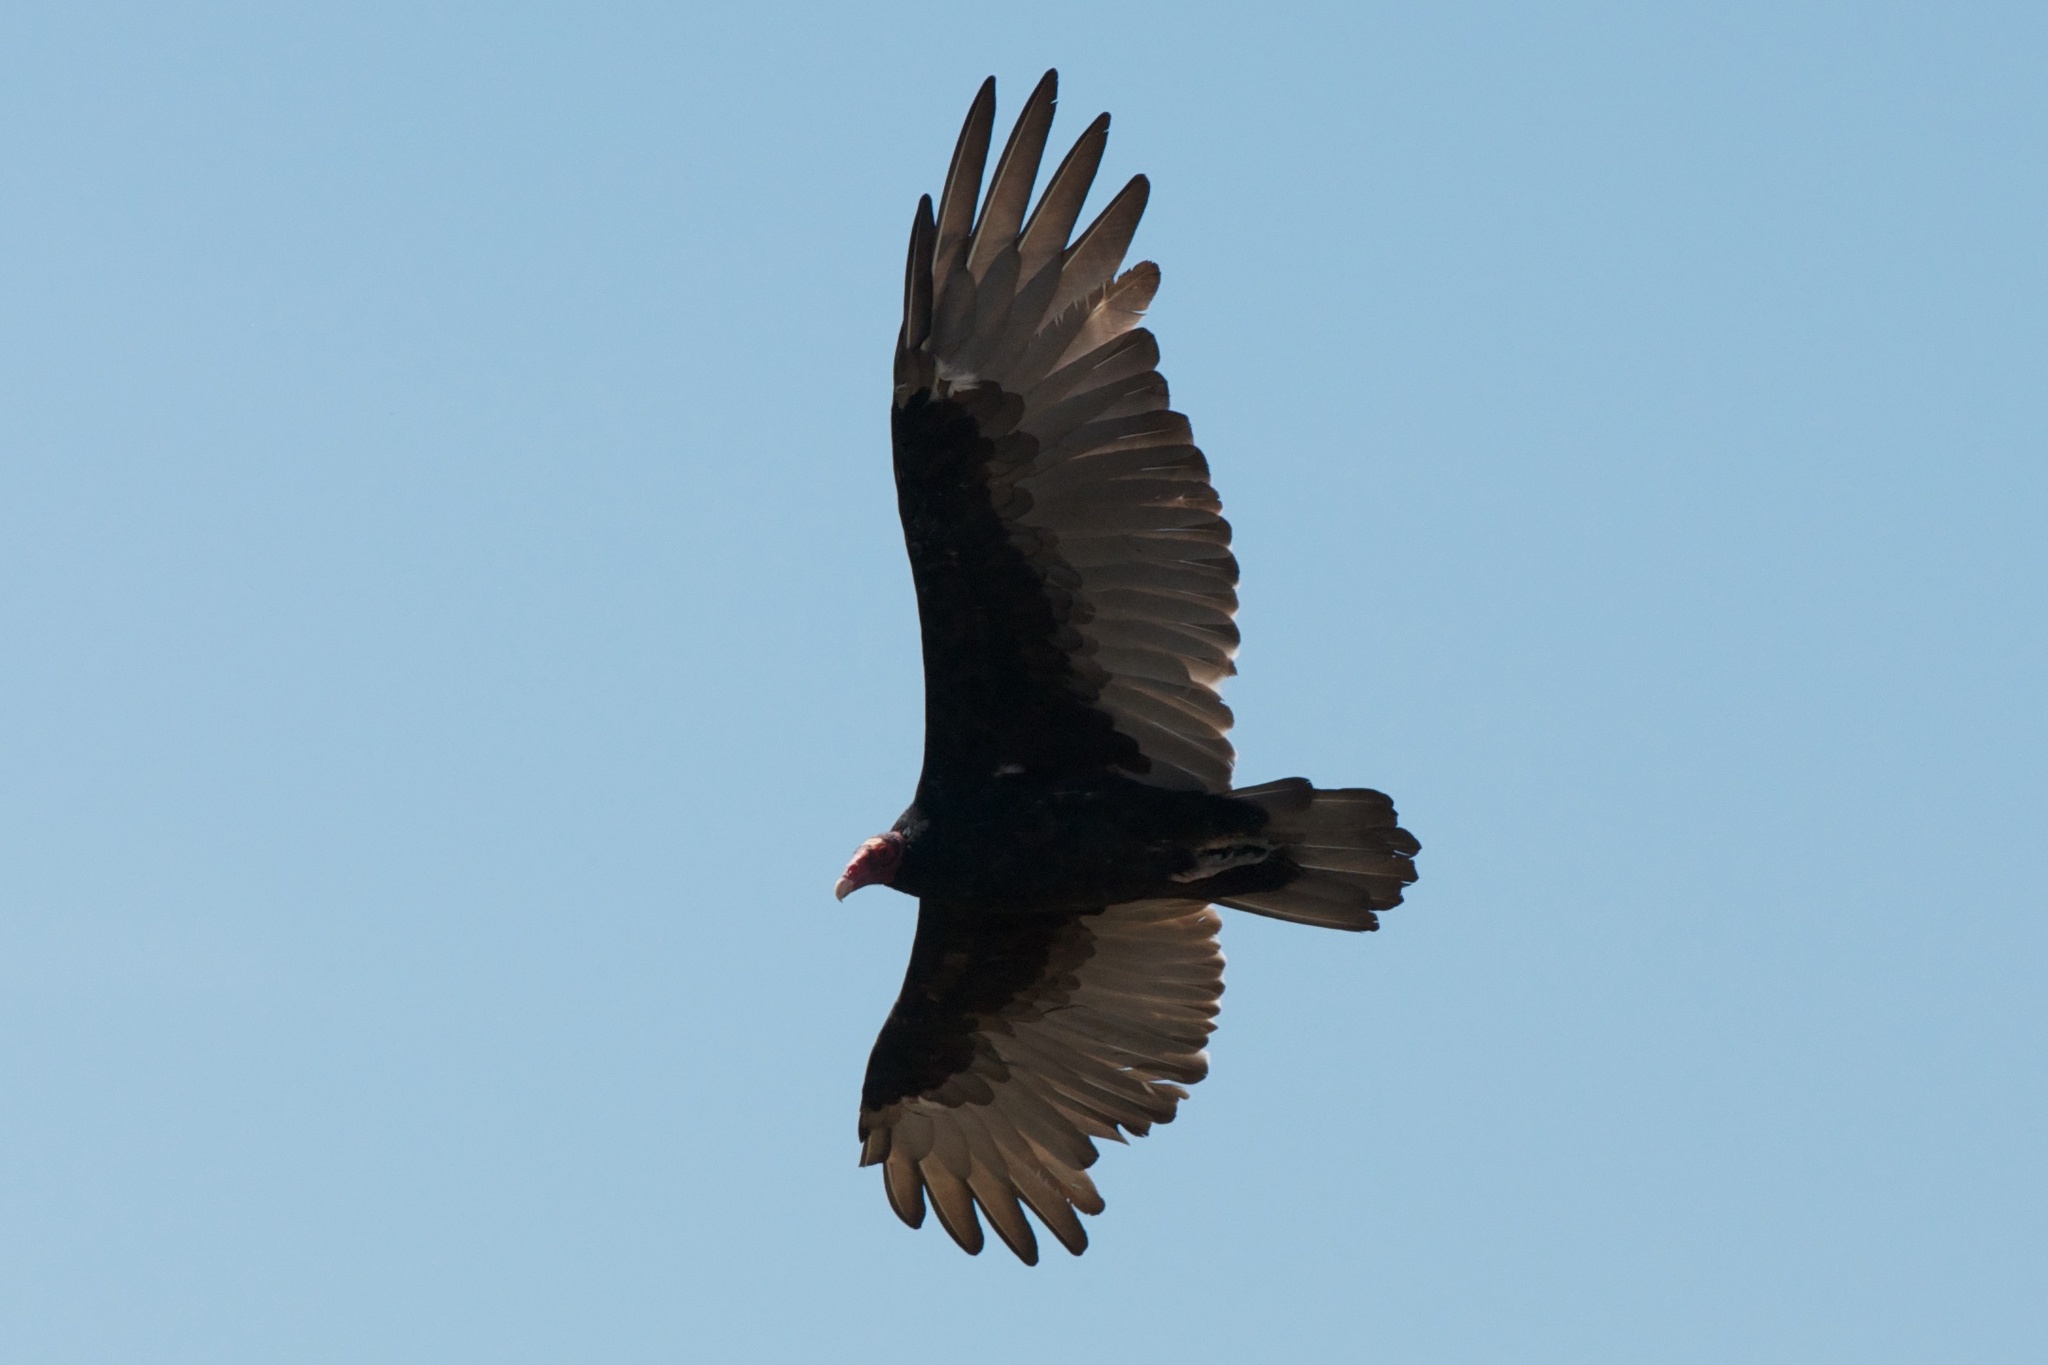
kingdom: Animalia
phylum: Chordata
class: Aves
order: Accipitriformes
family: Cathartidae
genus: Cathartes
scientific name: Cathartes aura
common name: Turkey vulture
